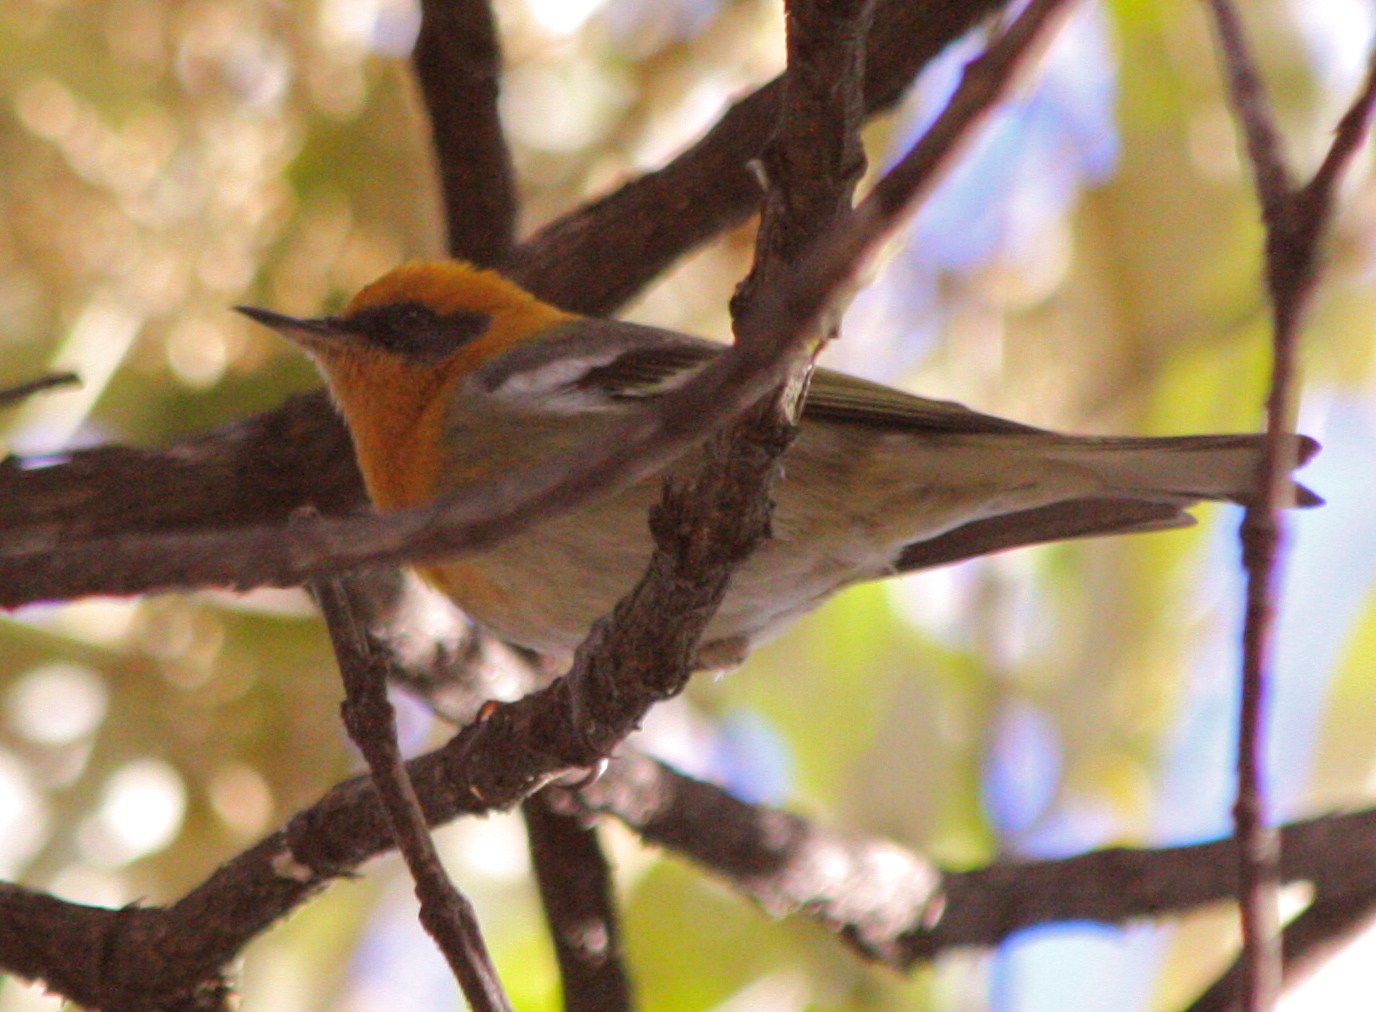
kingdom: Animalia
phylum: Chordata
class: Aves
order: Passeriformes
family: Peucedramidae
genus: Peucedramus
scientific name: Peucedramus taeniatus
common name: Olive warbler
